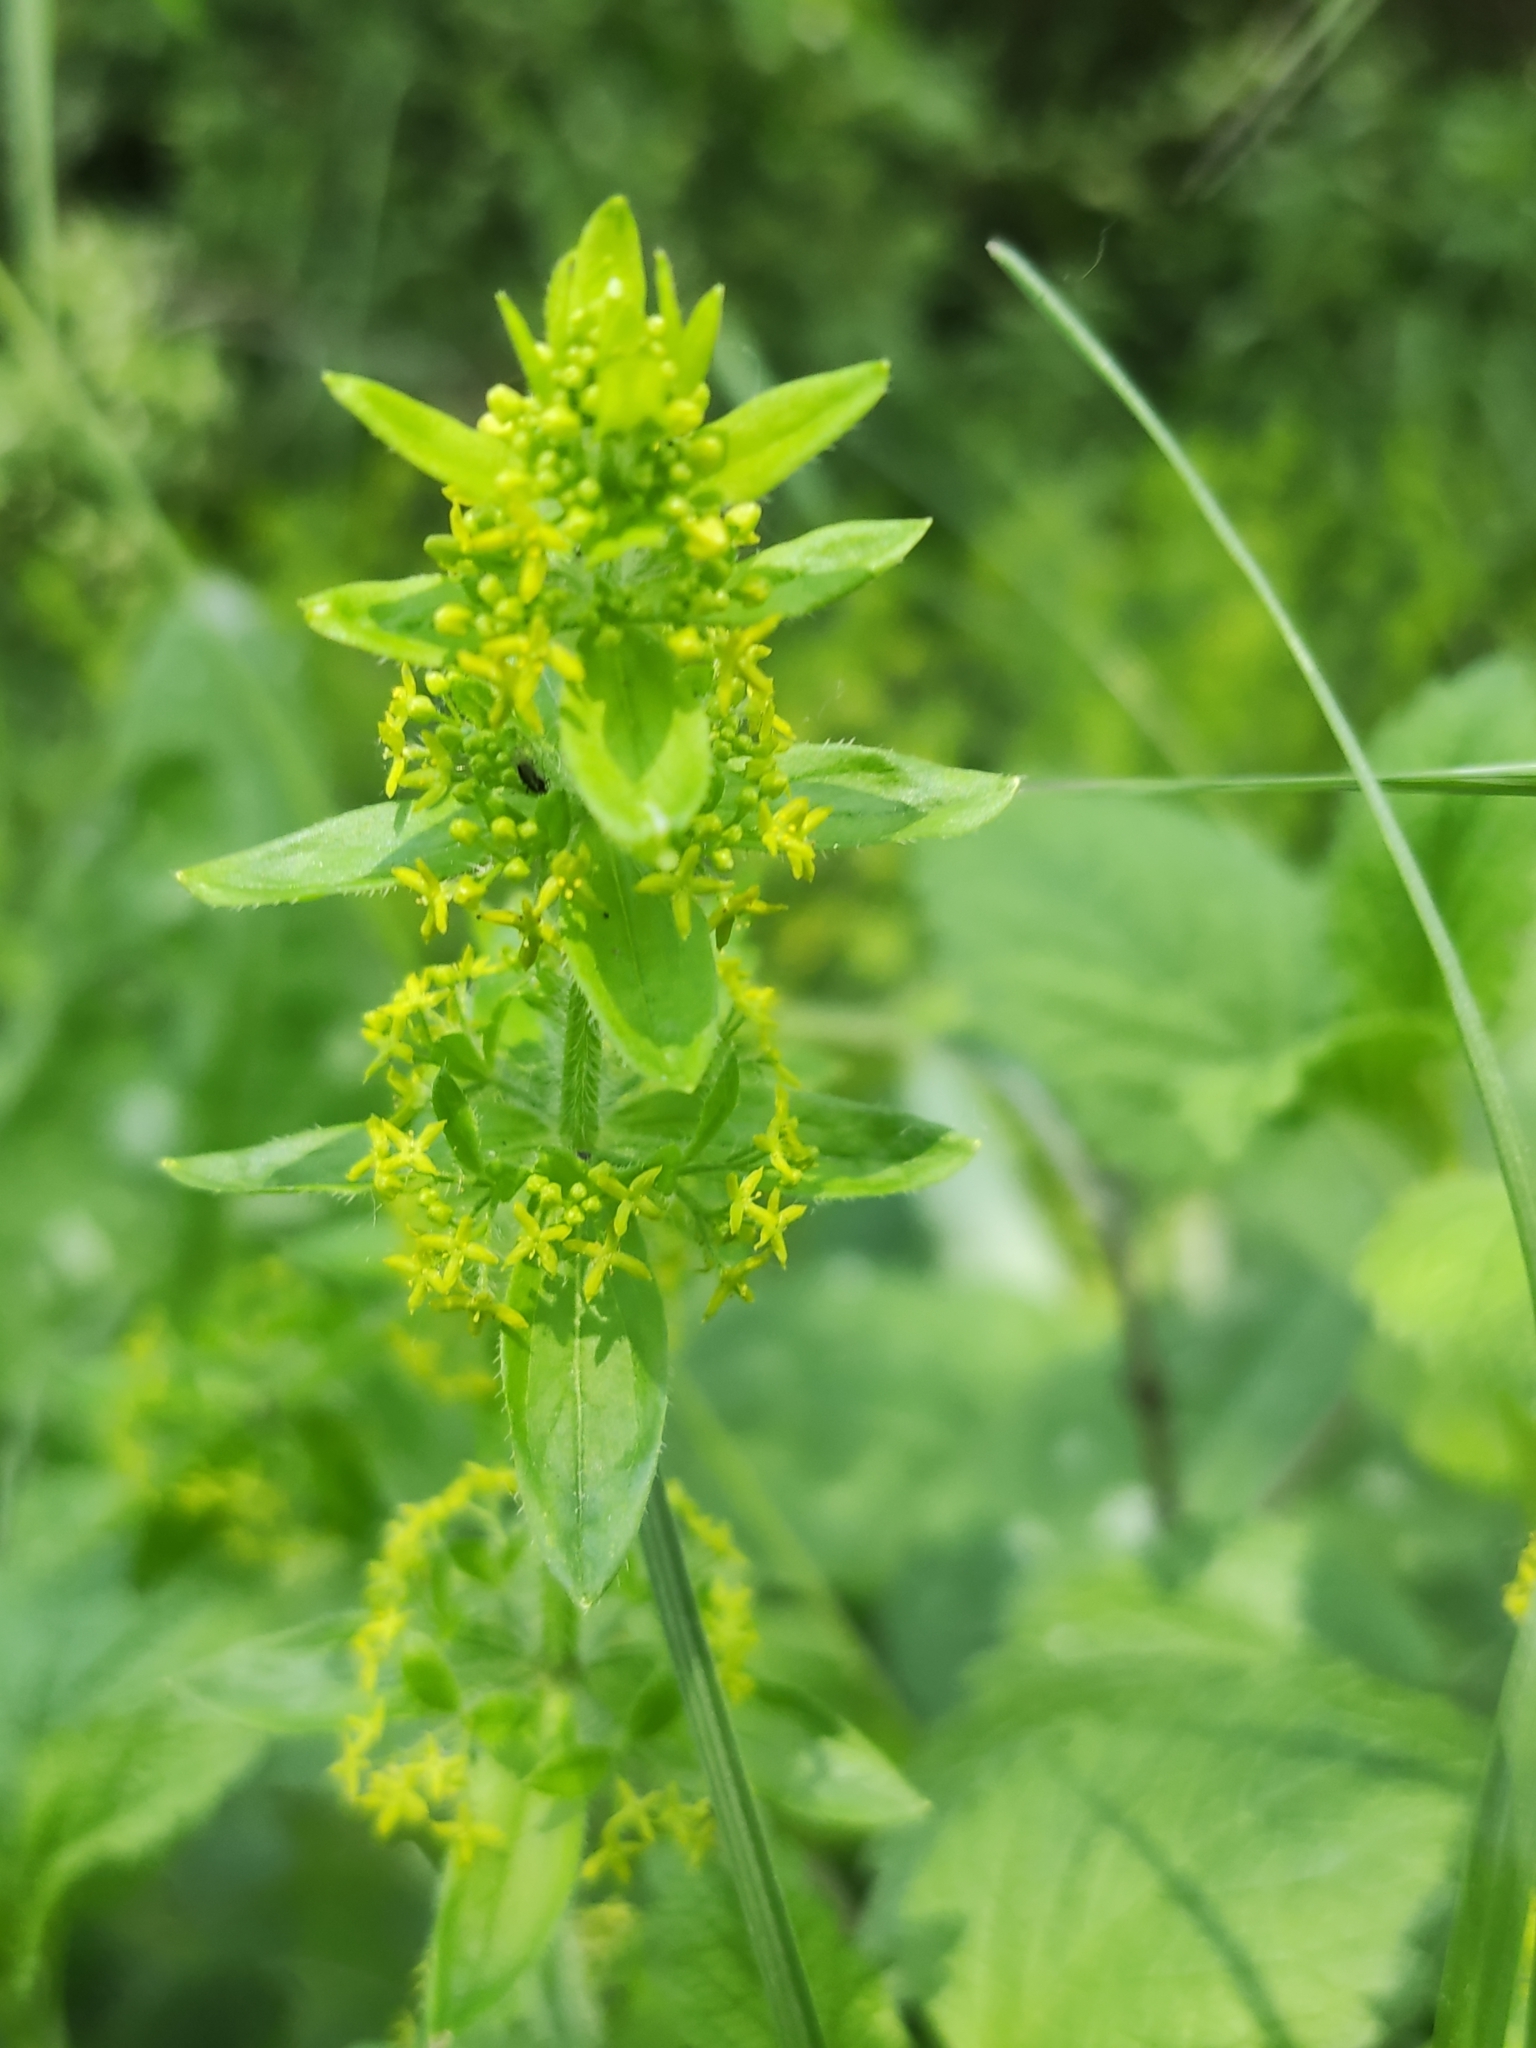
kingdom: Plantae
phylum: Tracheophyta
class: Magnoliopsida
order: Gentianales
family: Rubiaceae
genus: Cruciata
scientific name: Cruciata laevipes
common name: Crosswort
